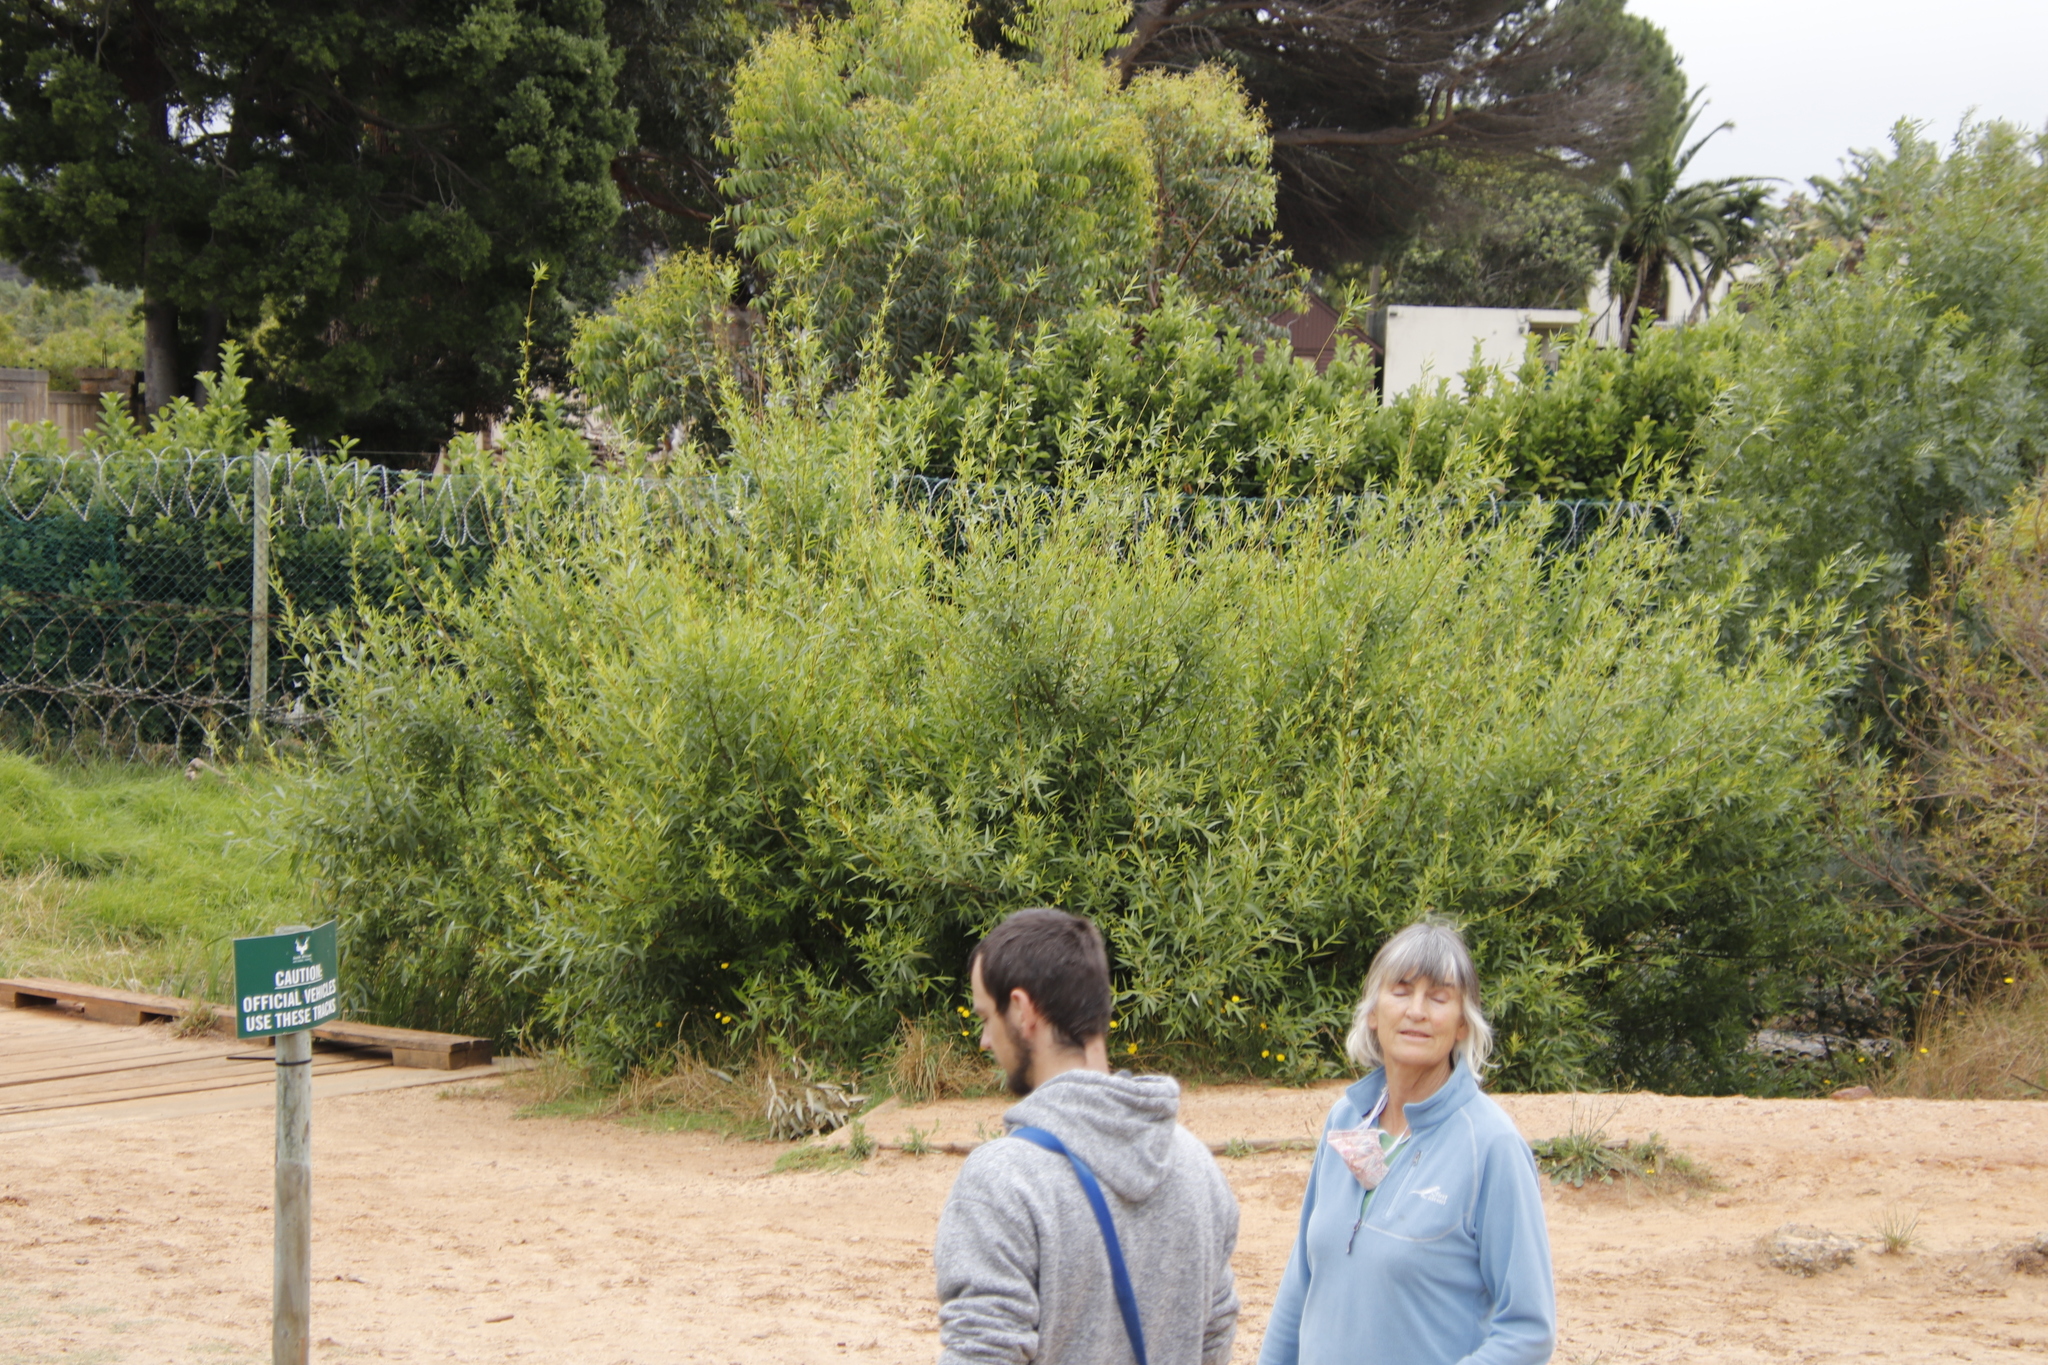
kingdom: Plantae
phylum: Tracheophyta
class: Magnoliopsida
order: Malpighiales
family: Salicaceae
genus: Salix
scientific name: Salix fragilis
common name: Crack willow
